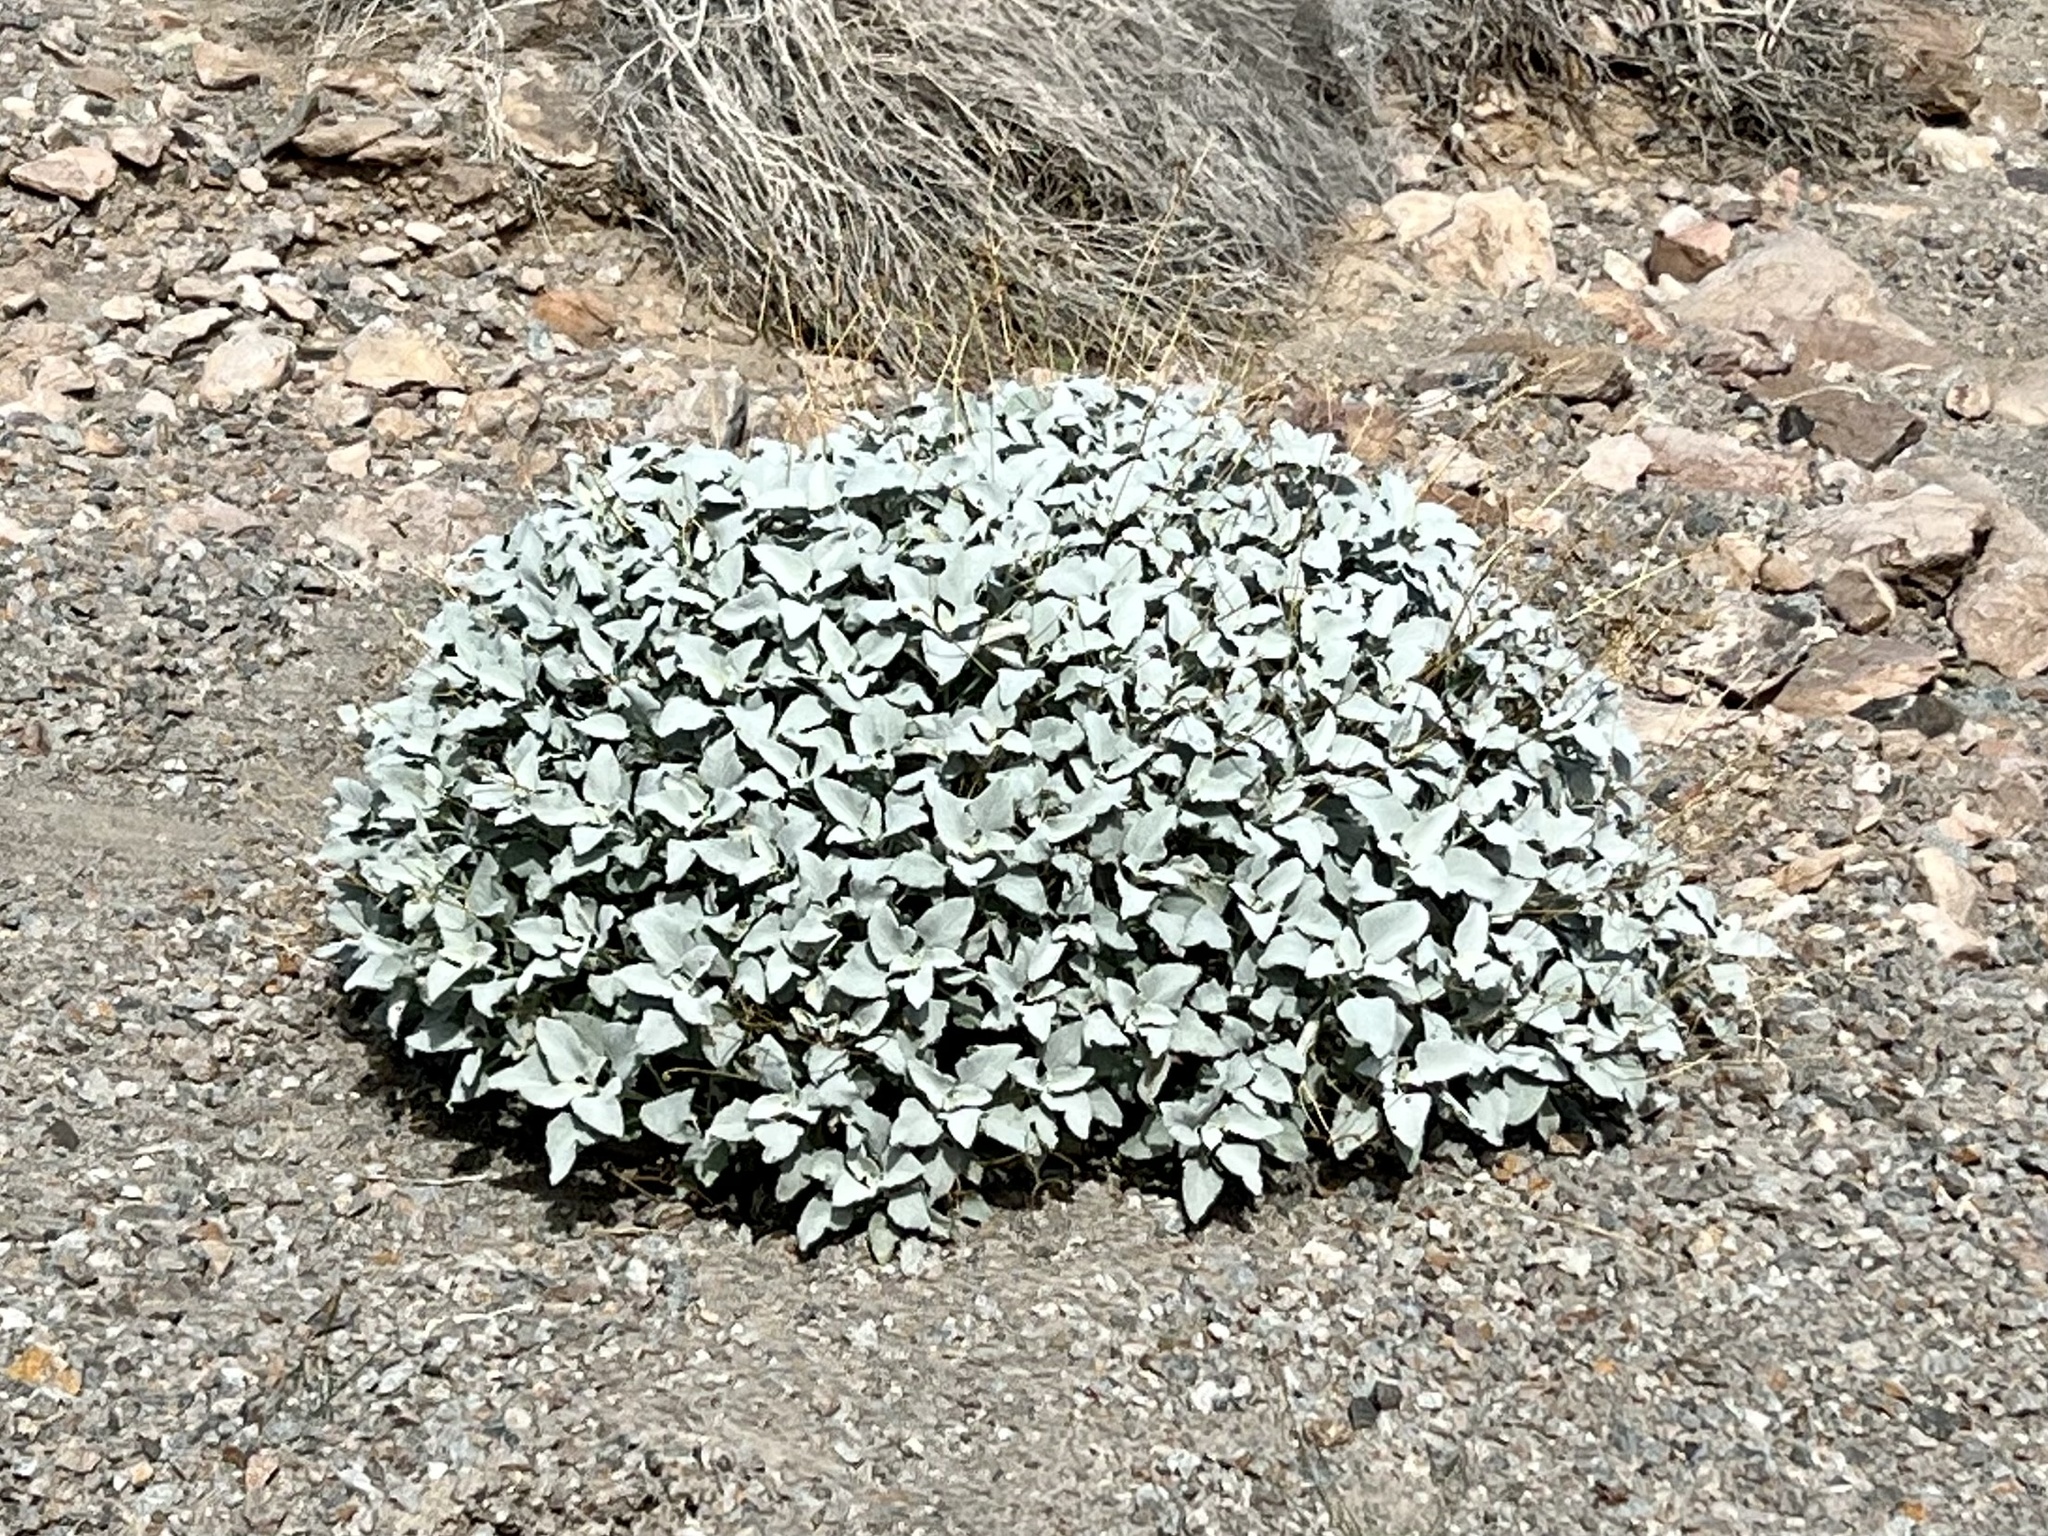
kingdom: Plantae
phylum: Tracheophyta
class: Magnoliopsida
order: Asterales
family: Asteraceae
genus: Encelia
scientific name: Encelia farinosa
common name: Brittlebush
